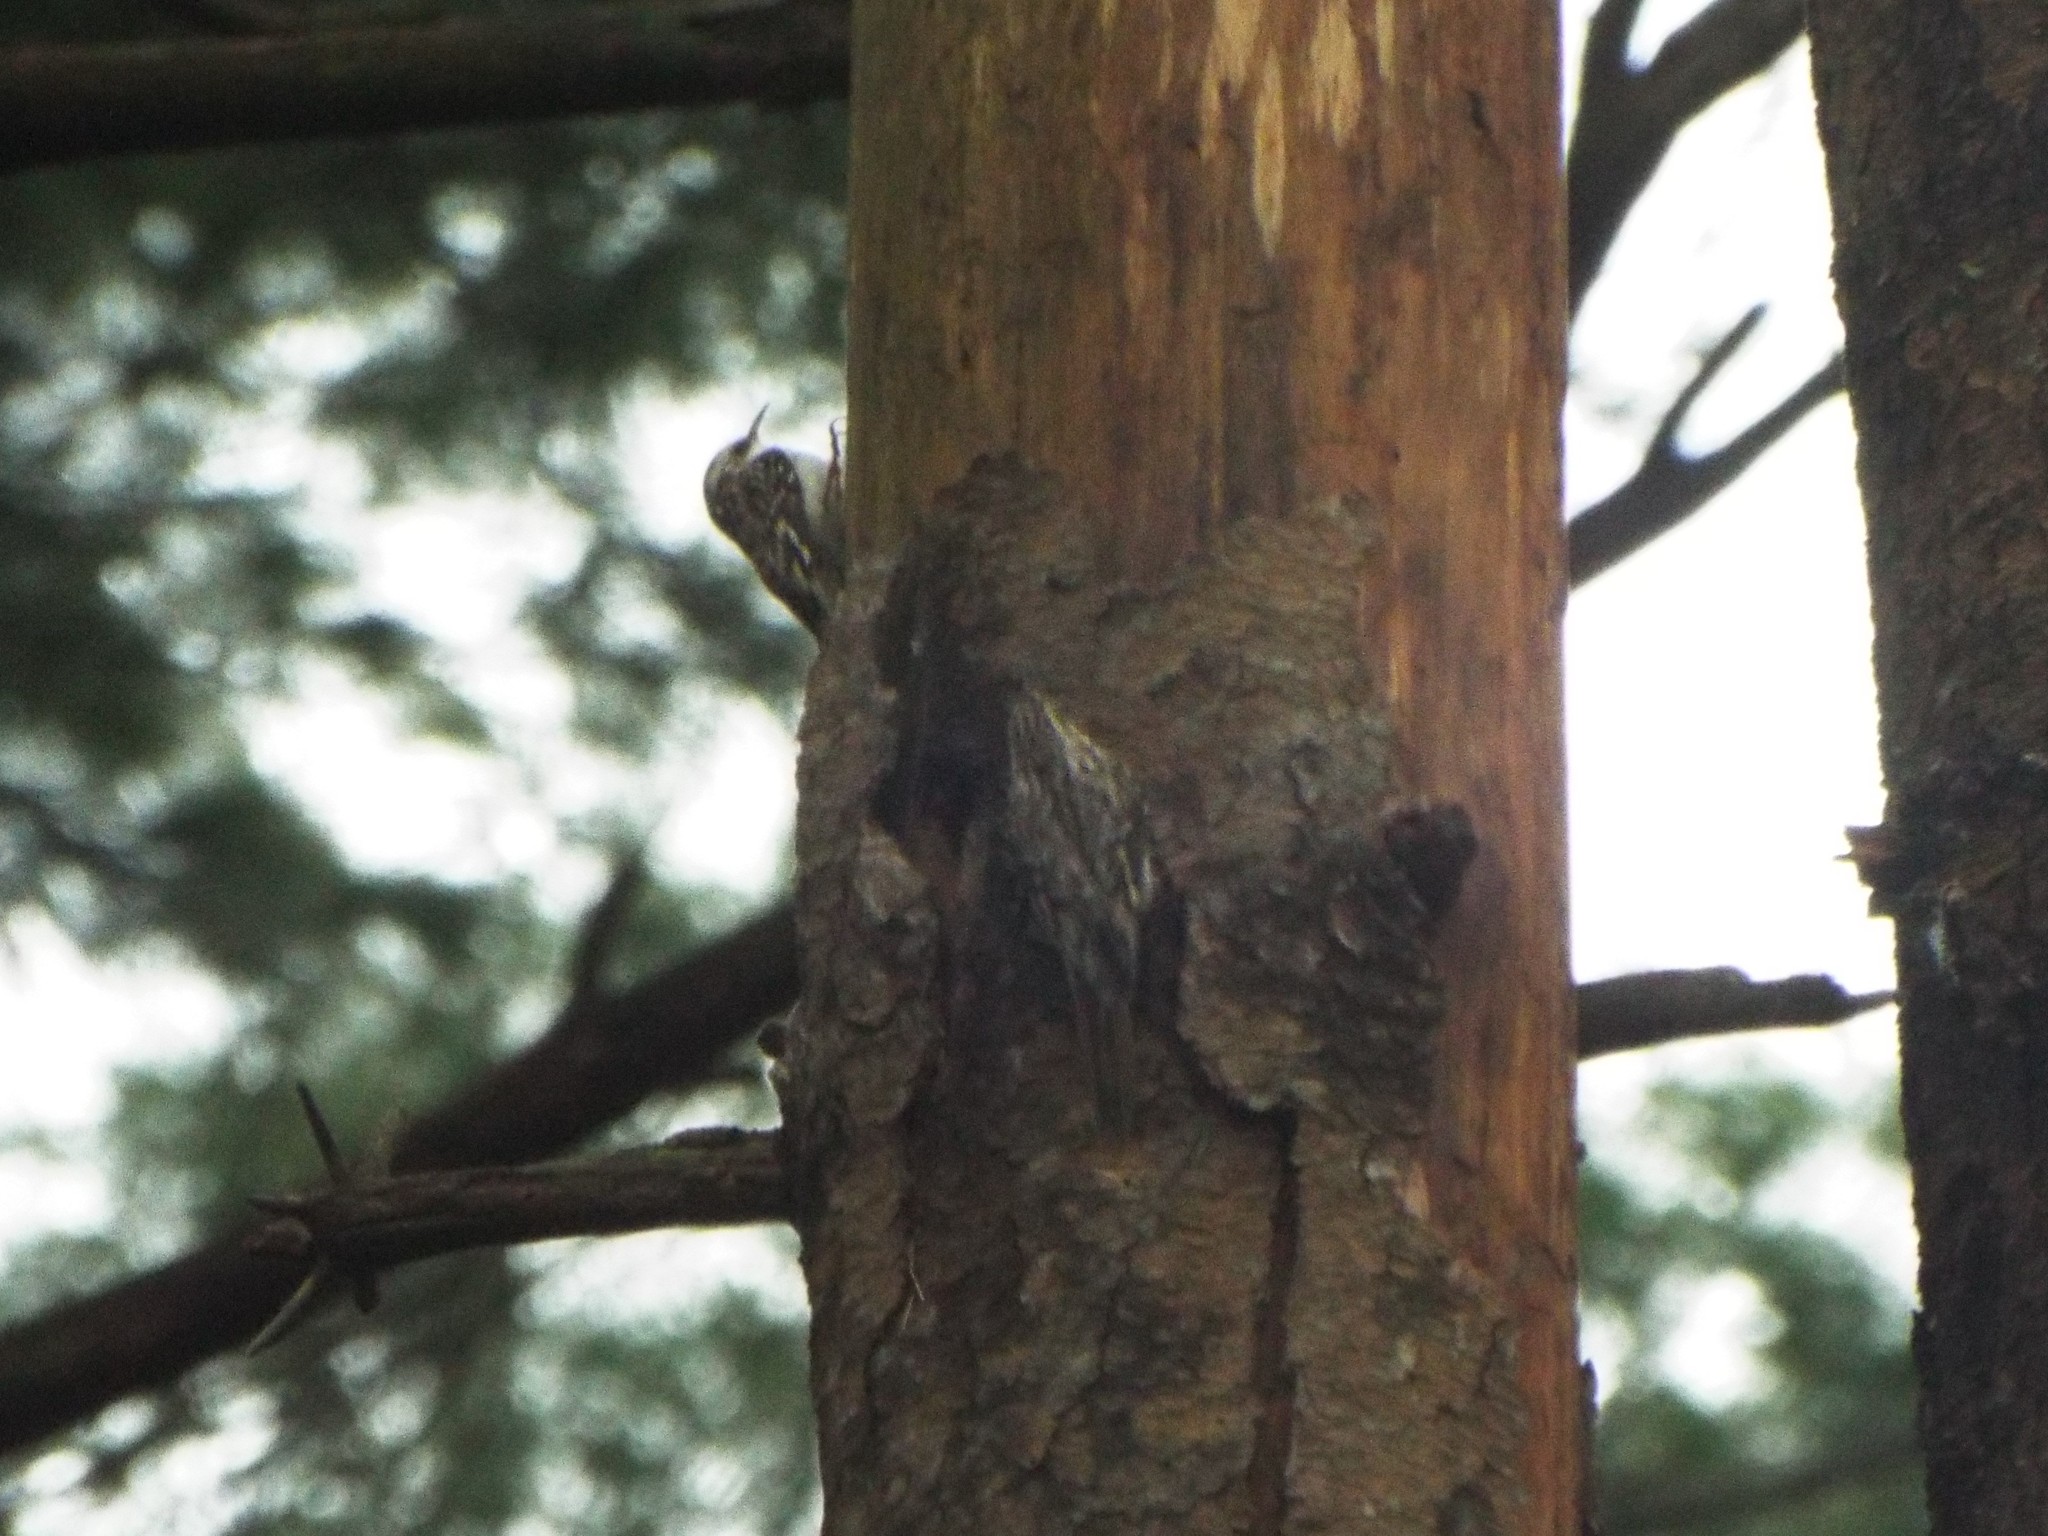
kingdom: Animalia
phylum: Chordata
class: Aves
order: Passeriformes
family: Certhiidae
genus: Certhia
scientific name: Certhia americana
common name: Brown creeper
